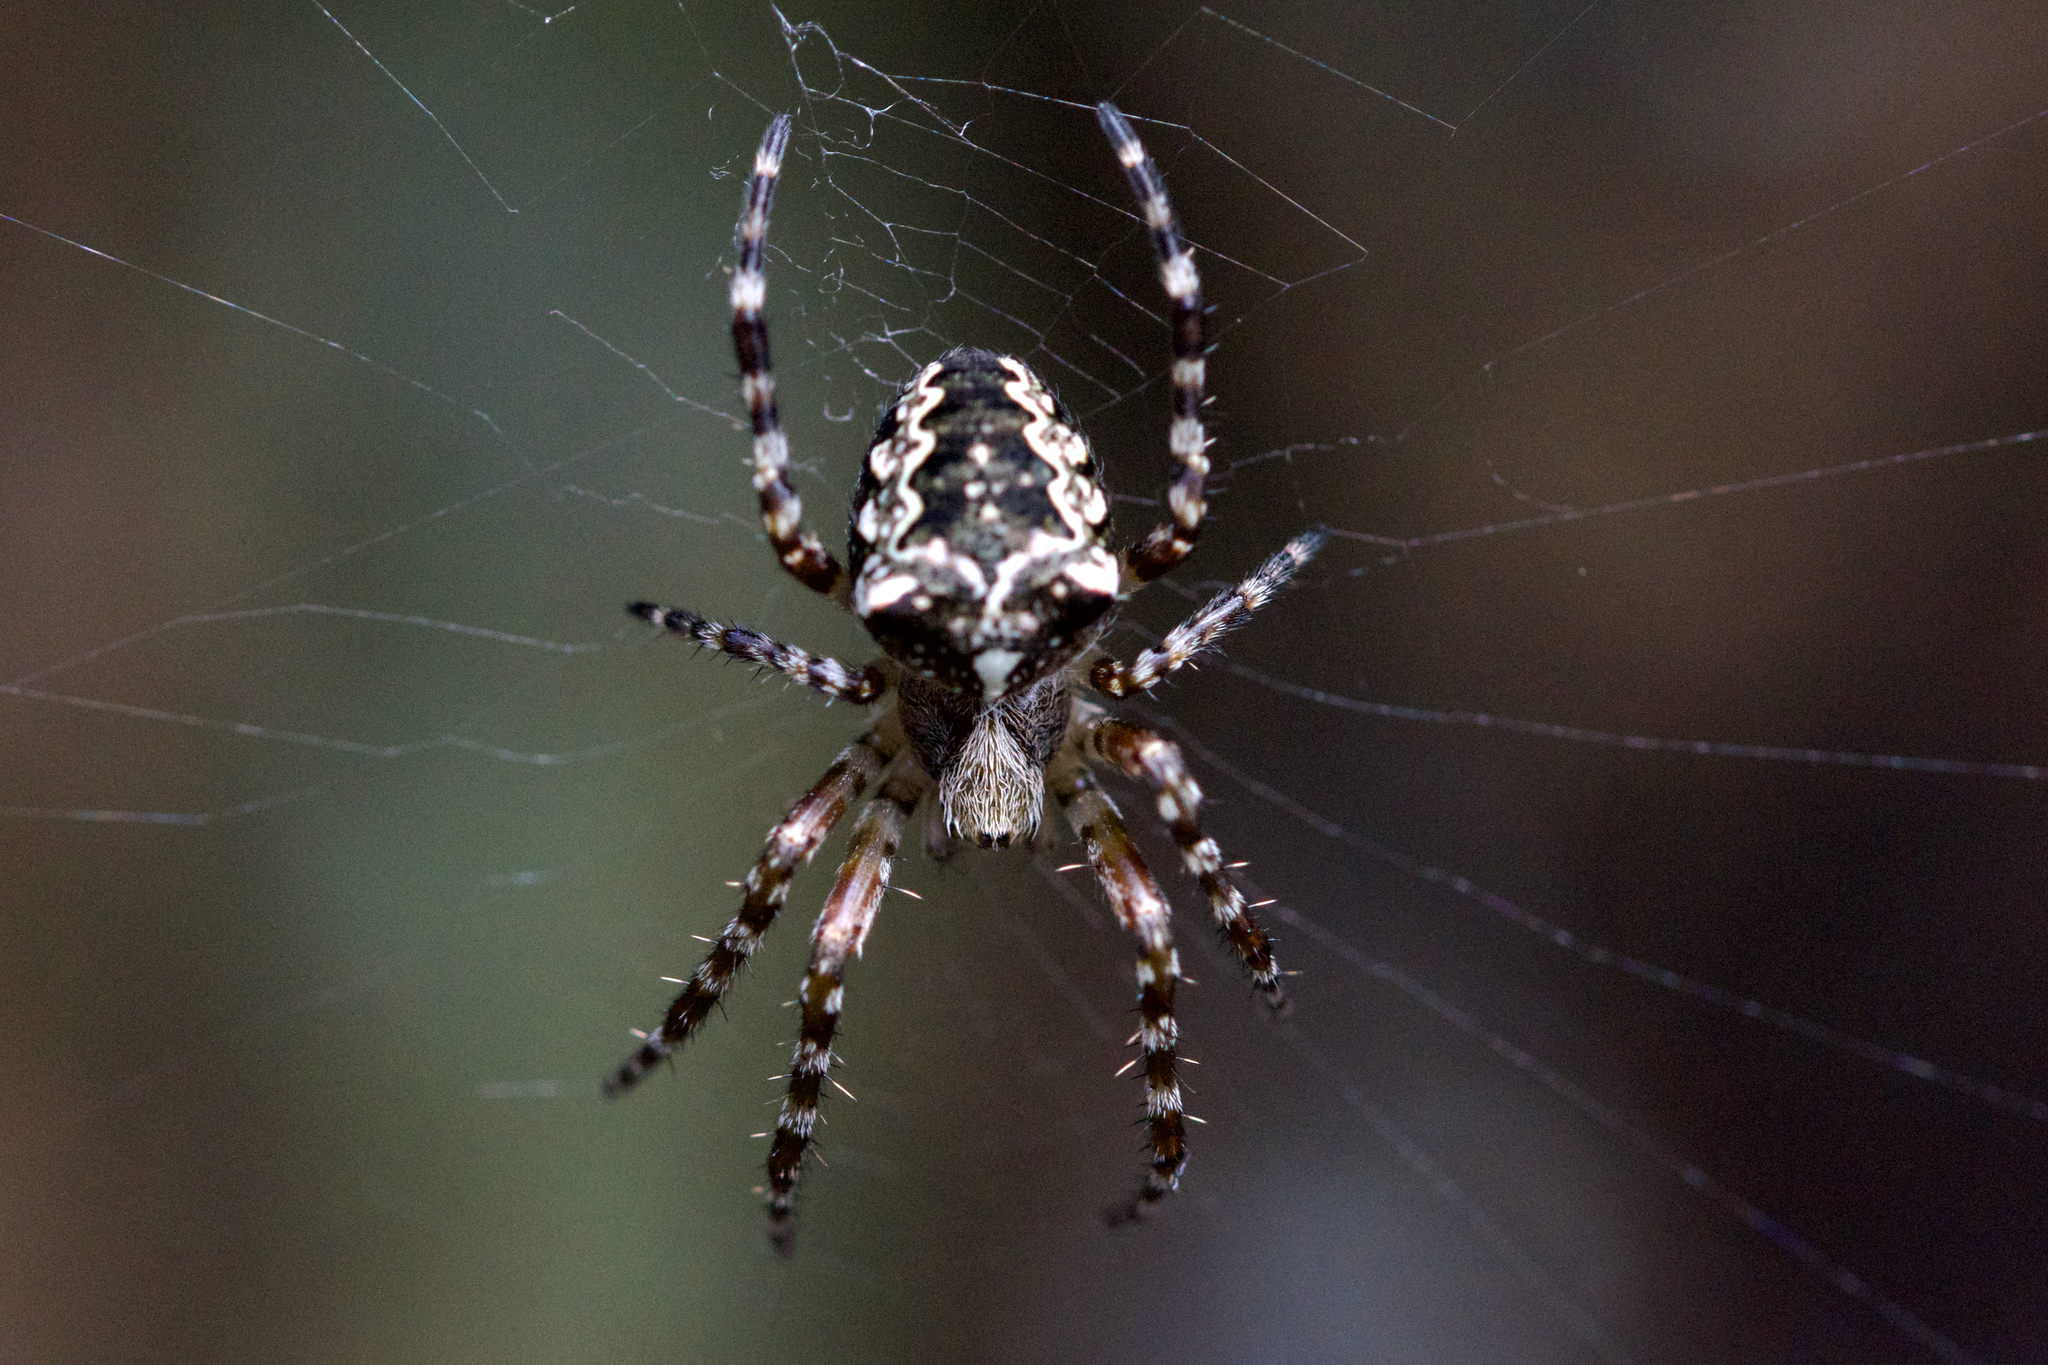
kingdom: Animalia
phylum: Arthropoda
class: Arachnida
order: Araneae
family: Araneidae
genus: Araneus
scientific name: Araneus nordmanni
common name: Nordmann's orbweaver
